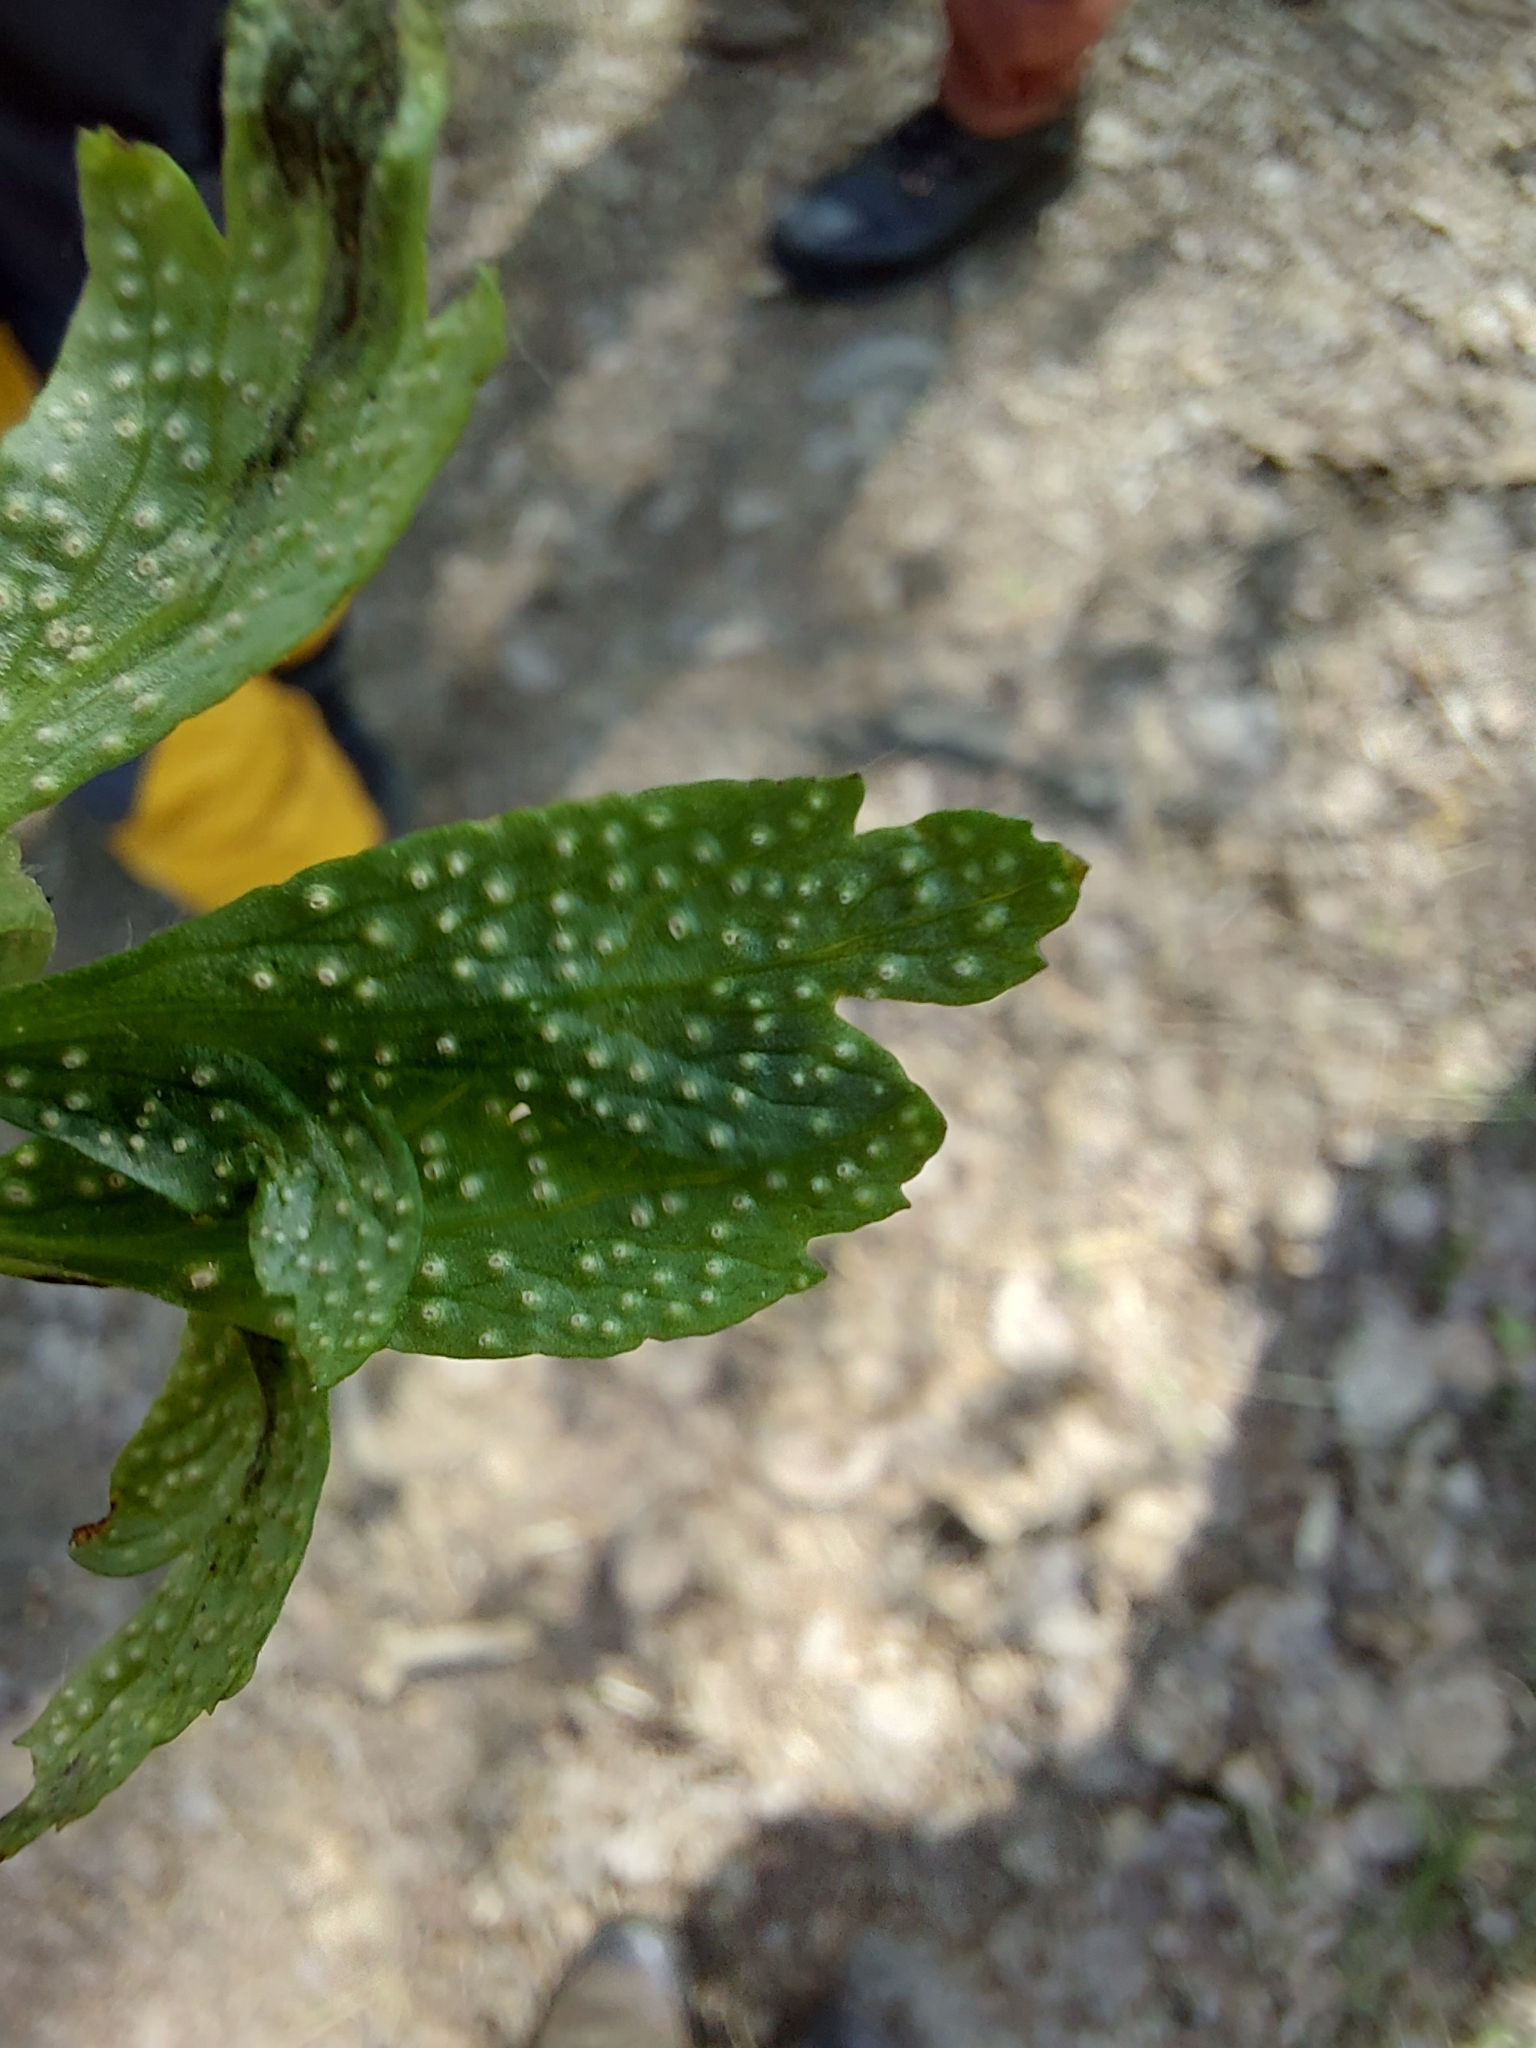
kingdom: Fungi
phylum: Basidiomycota
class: Pucciniomycetes
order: Pucciniales
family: Ochropsoraceae
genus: Ochropsora
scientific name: Ochropsora ariae
